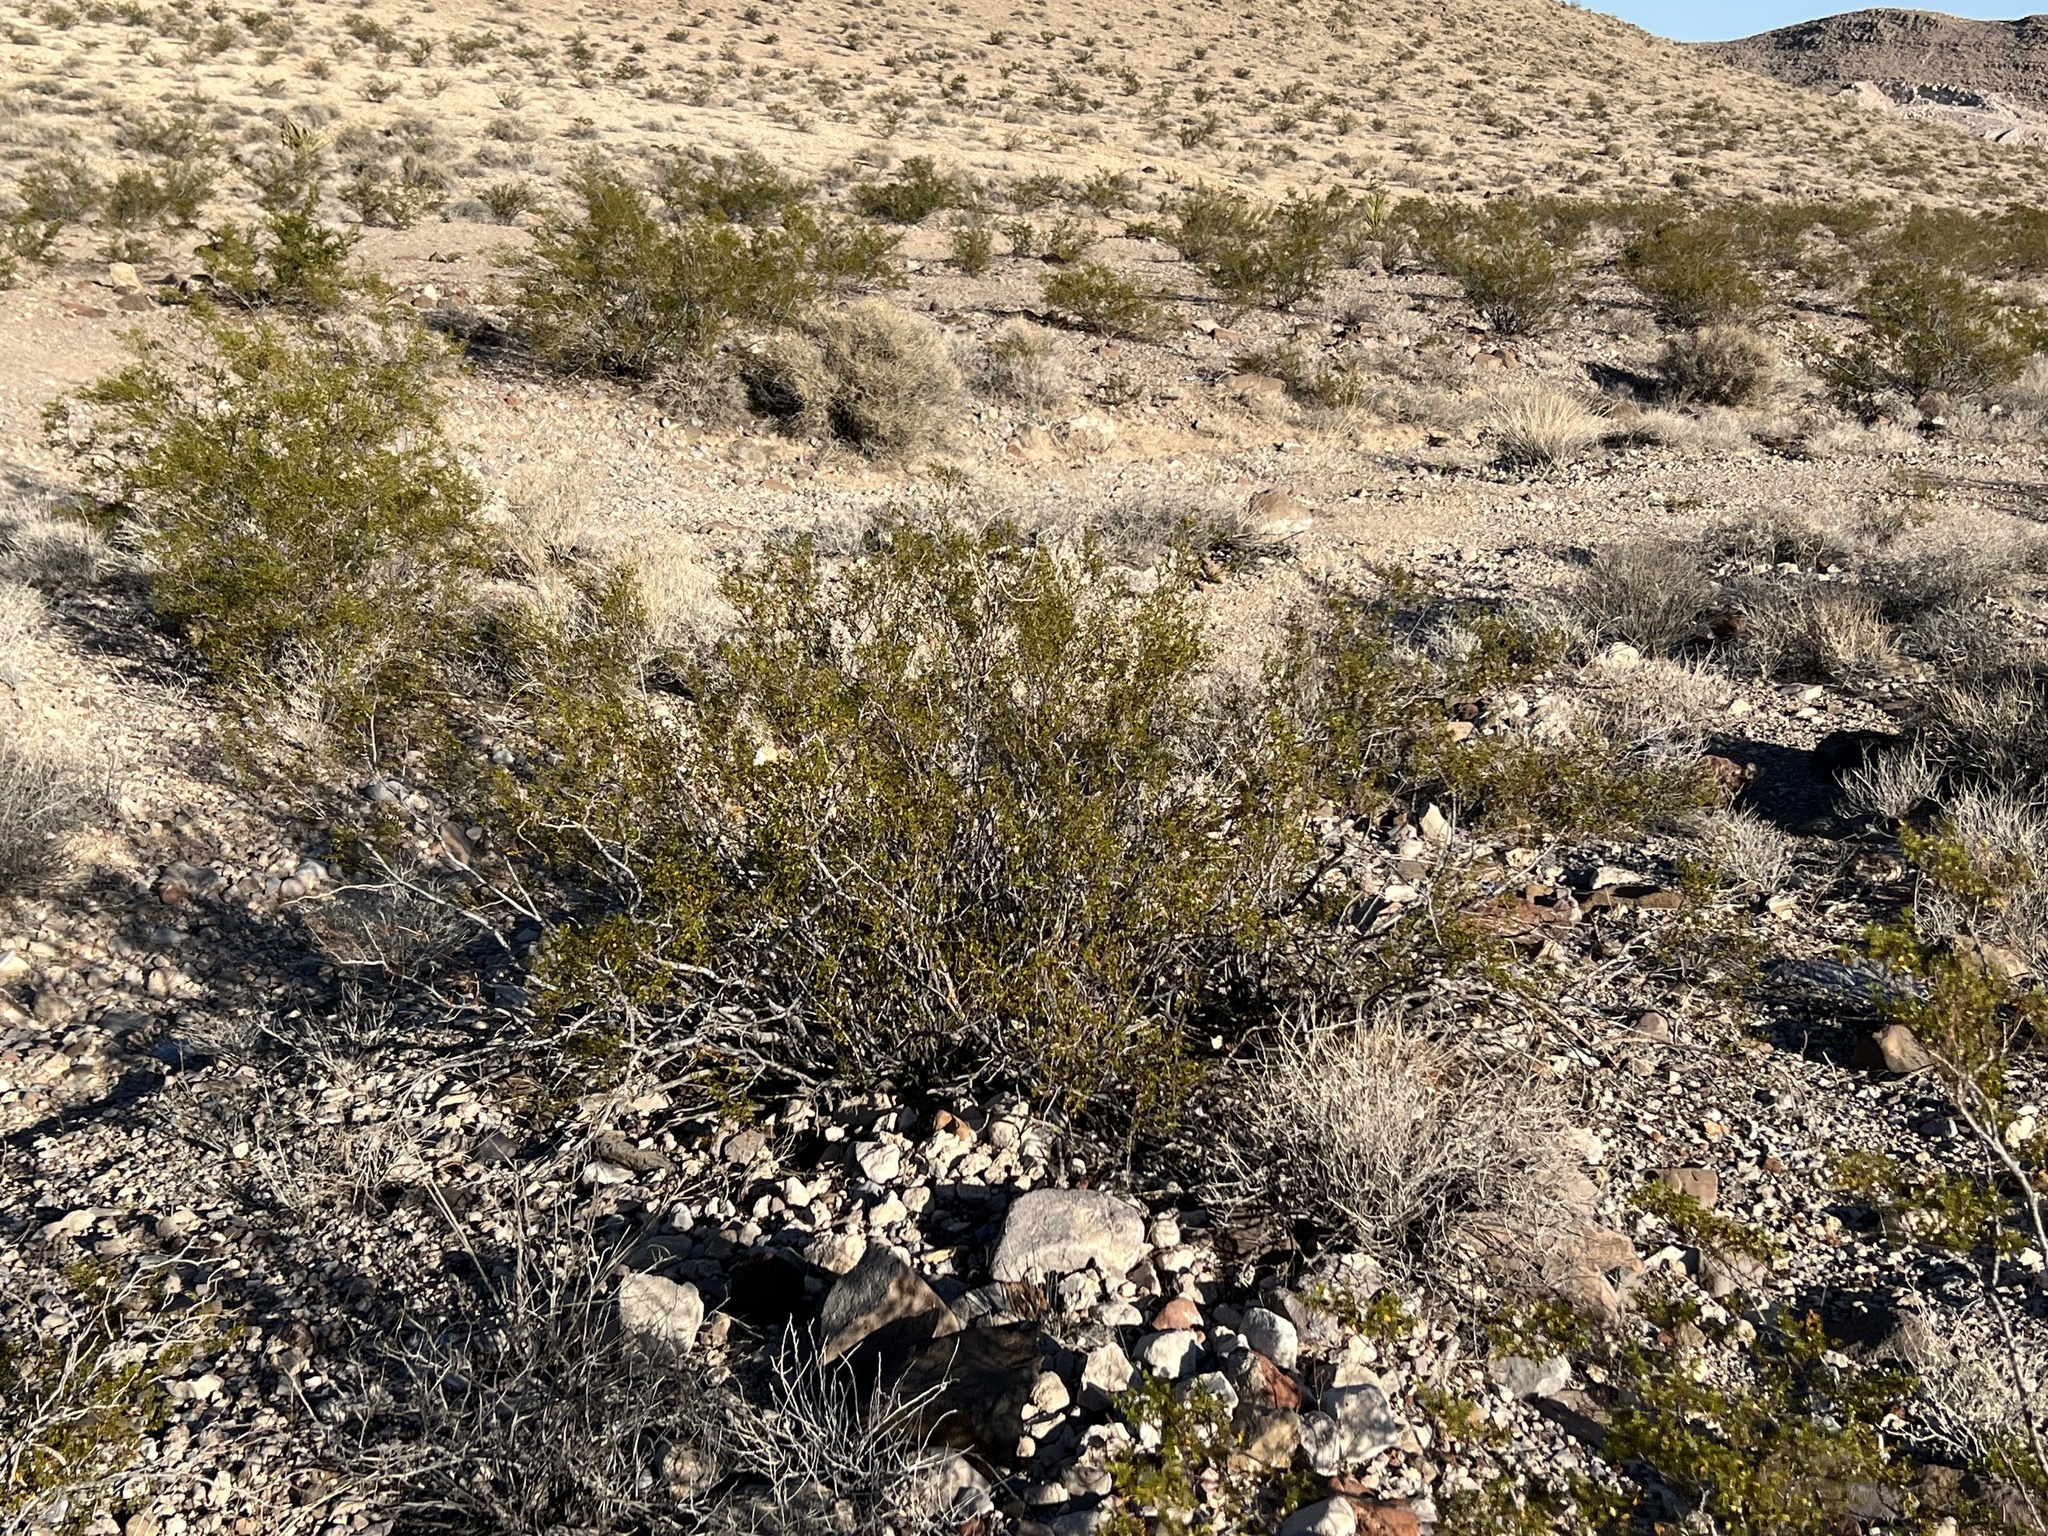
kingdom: Plantae
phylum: Tracheophyta
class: Magnoliopsida
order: Zygophyllales
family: Zygophyllaceae
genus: Larrea
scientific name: Larrea tridentata
